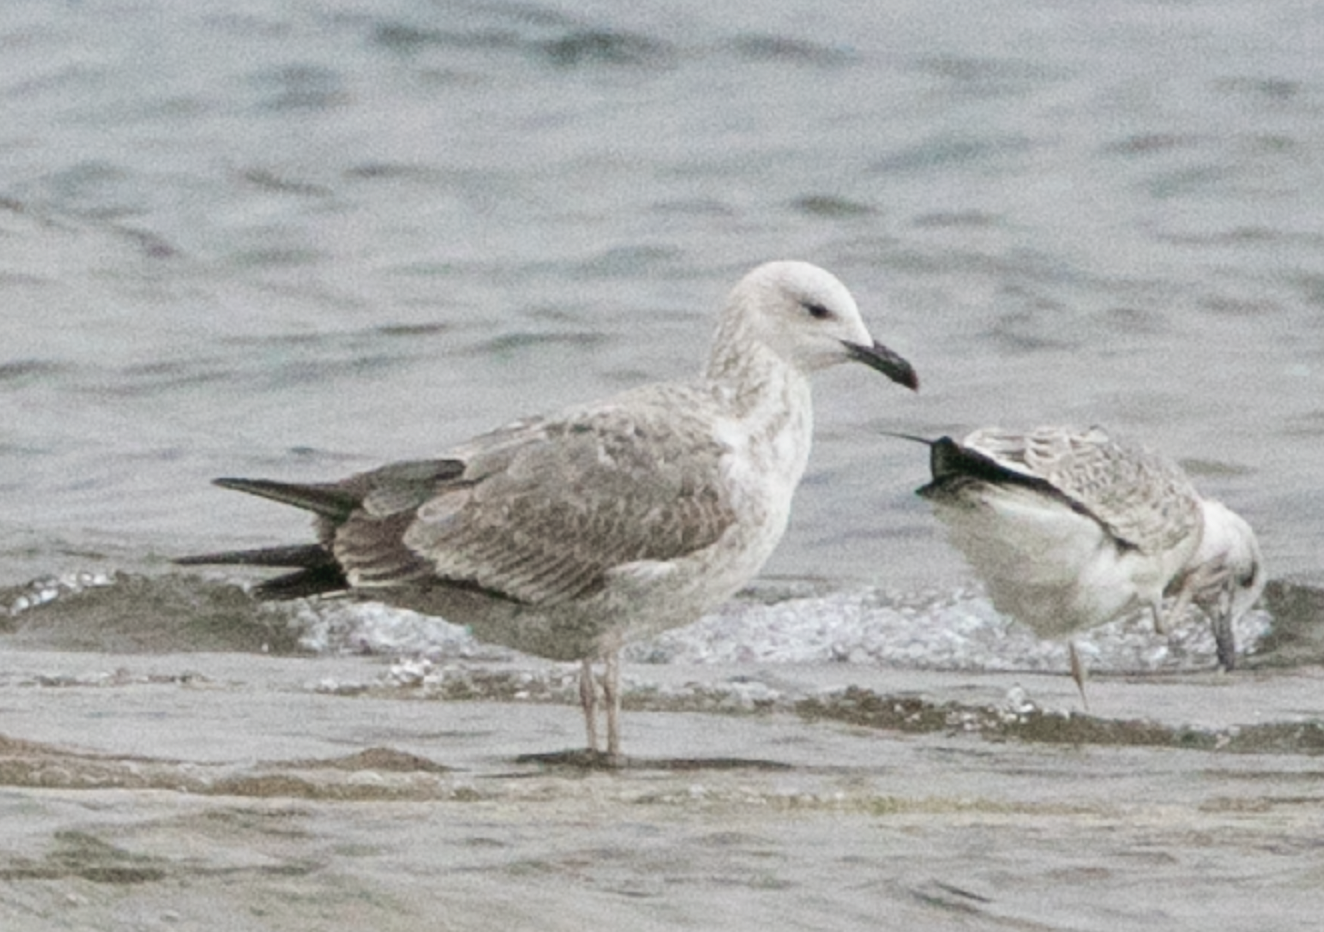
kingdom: Animalia
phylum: Chordata
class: Aves
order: Charadriiformes
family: Laridae
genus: Larus
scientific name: Larus cachinnans
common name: Caspian gull
